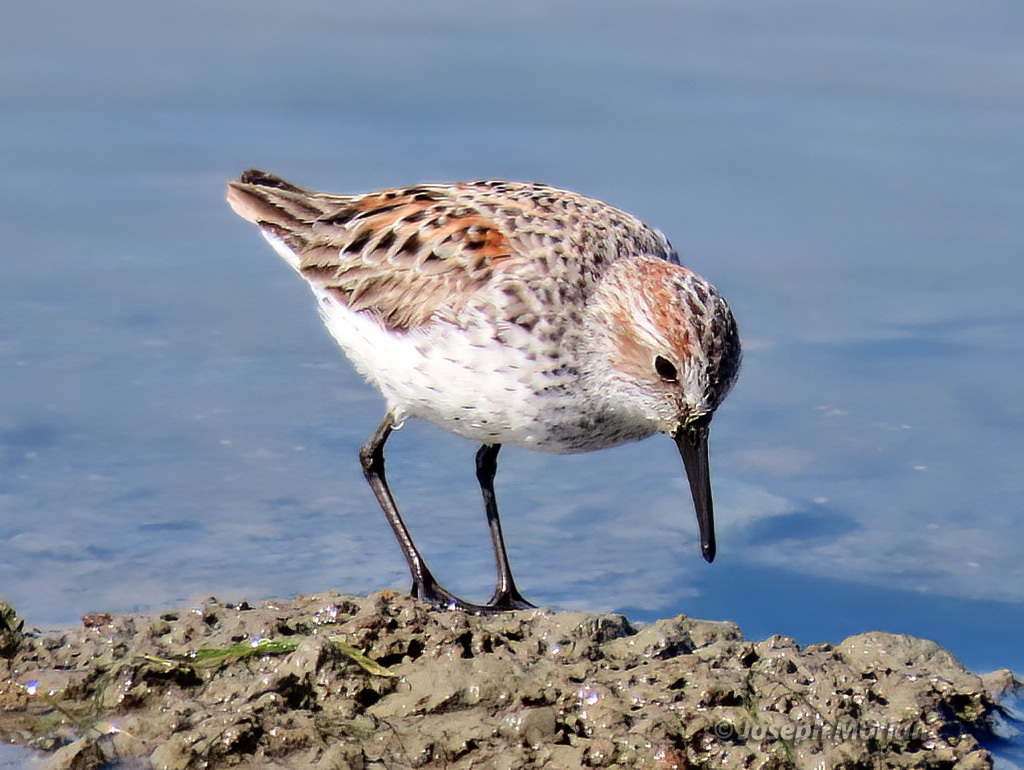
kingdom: Animalia
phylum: Chordata
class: Aves
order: Charadriiformes
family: Scolopacidae
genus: Calidris
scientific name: Calidris mauri
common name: Western sandpiper
